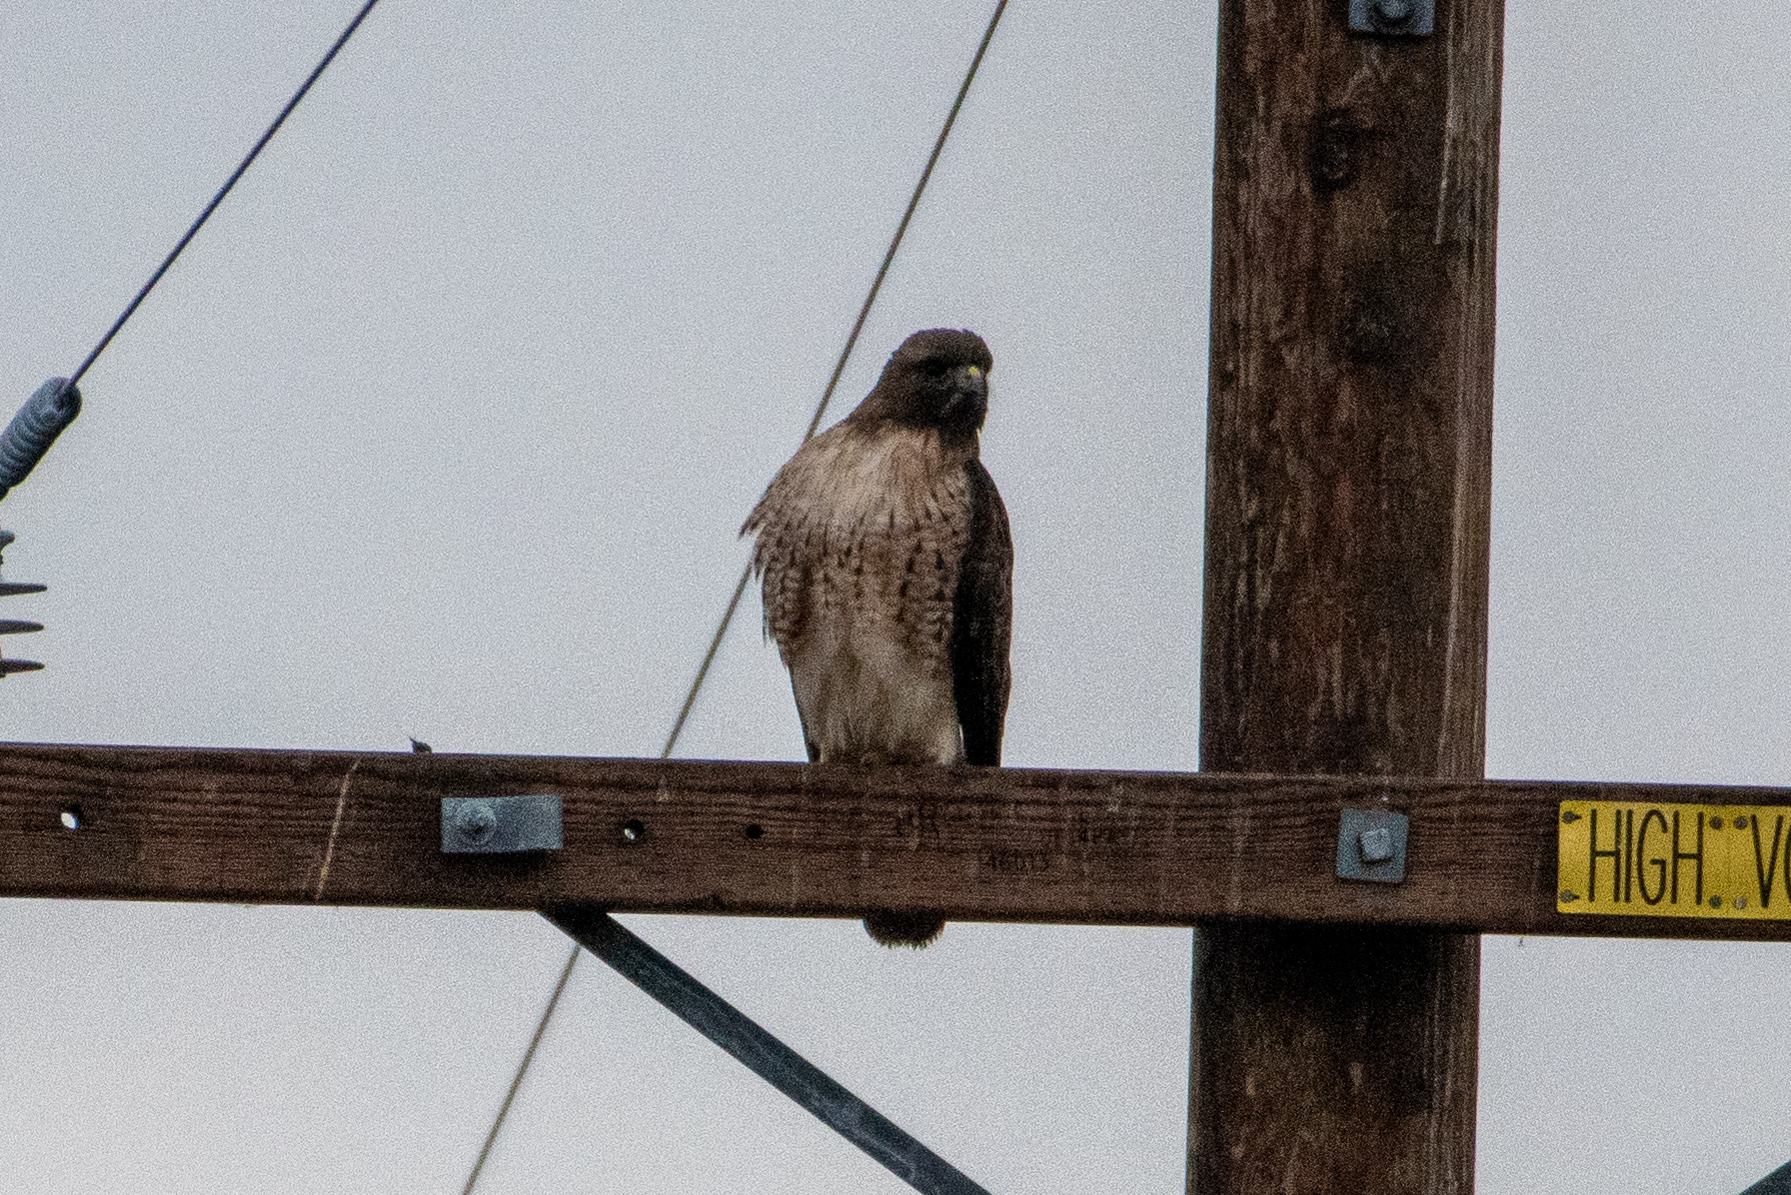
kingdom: Animalia
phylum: Chordata
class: Aves
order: Accipitriformes
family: Accipitridae
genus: Buteo
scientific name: Buteo jamaicensis
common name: Red-tailed hawk
